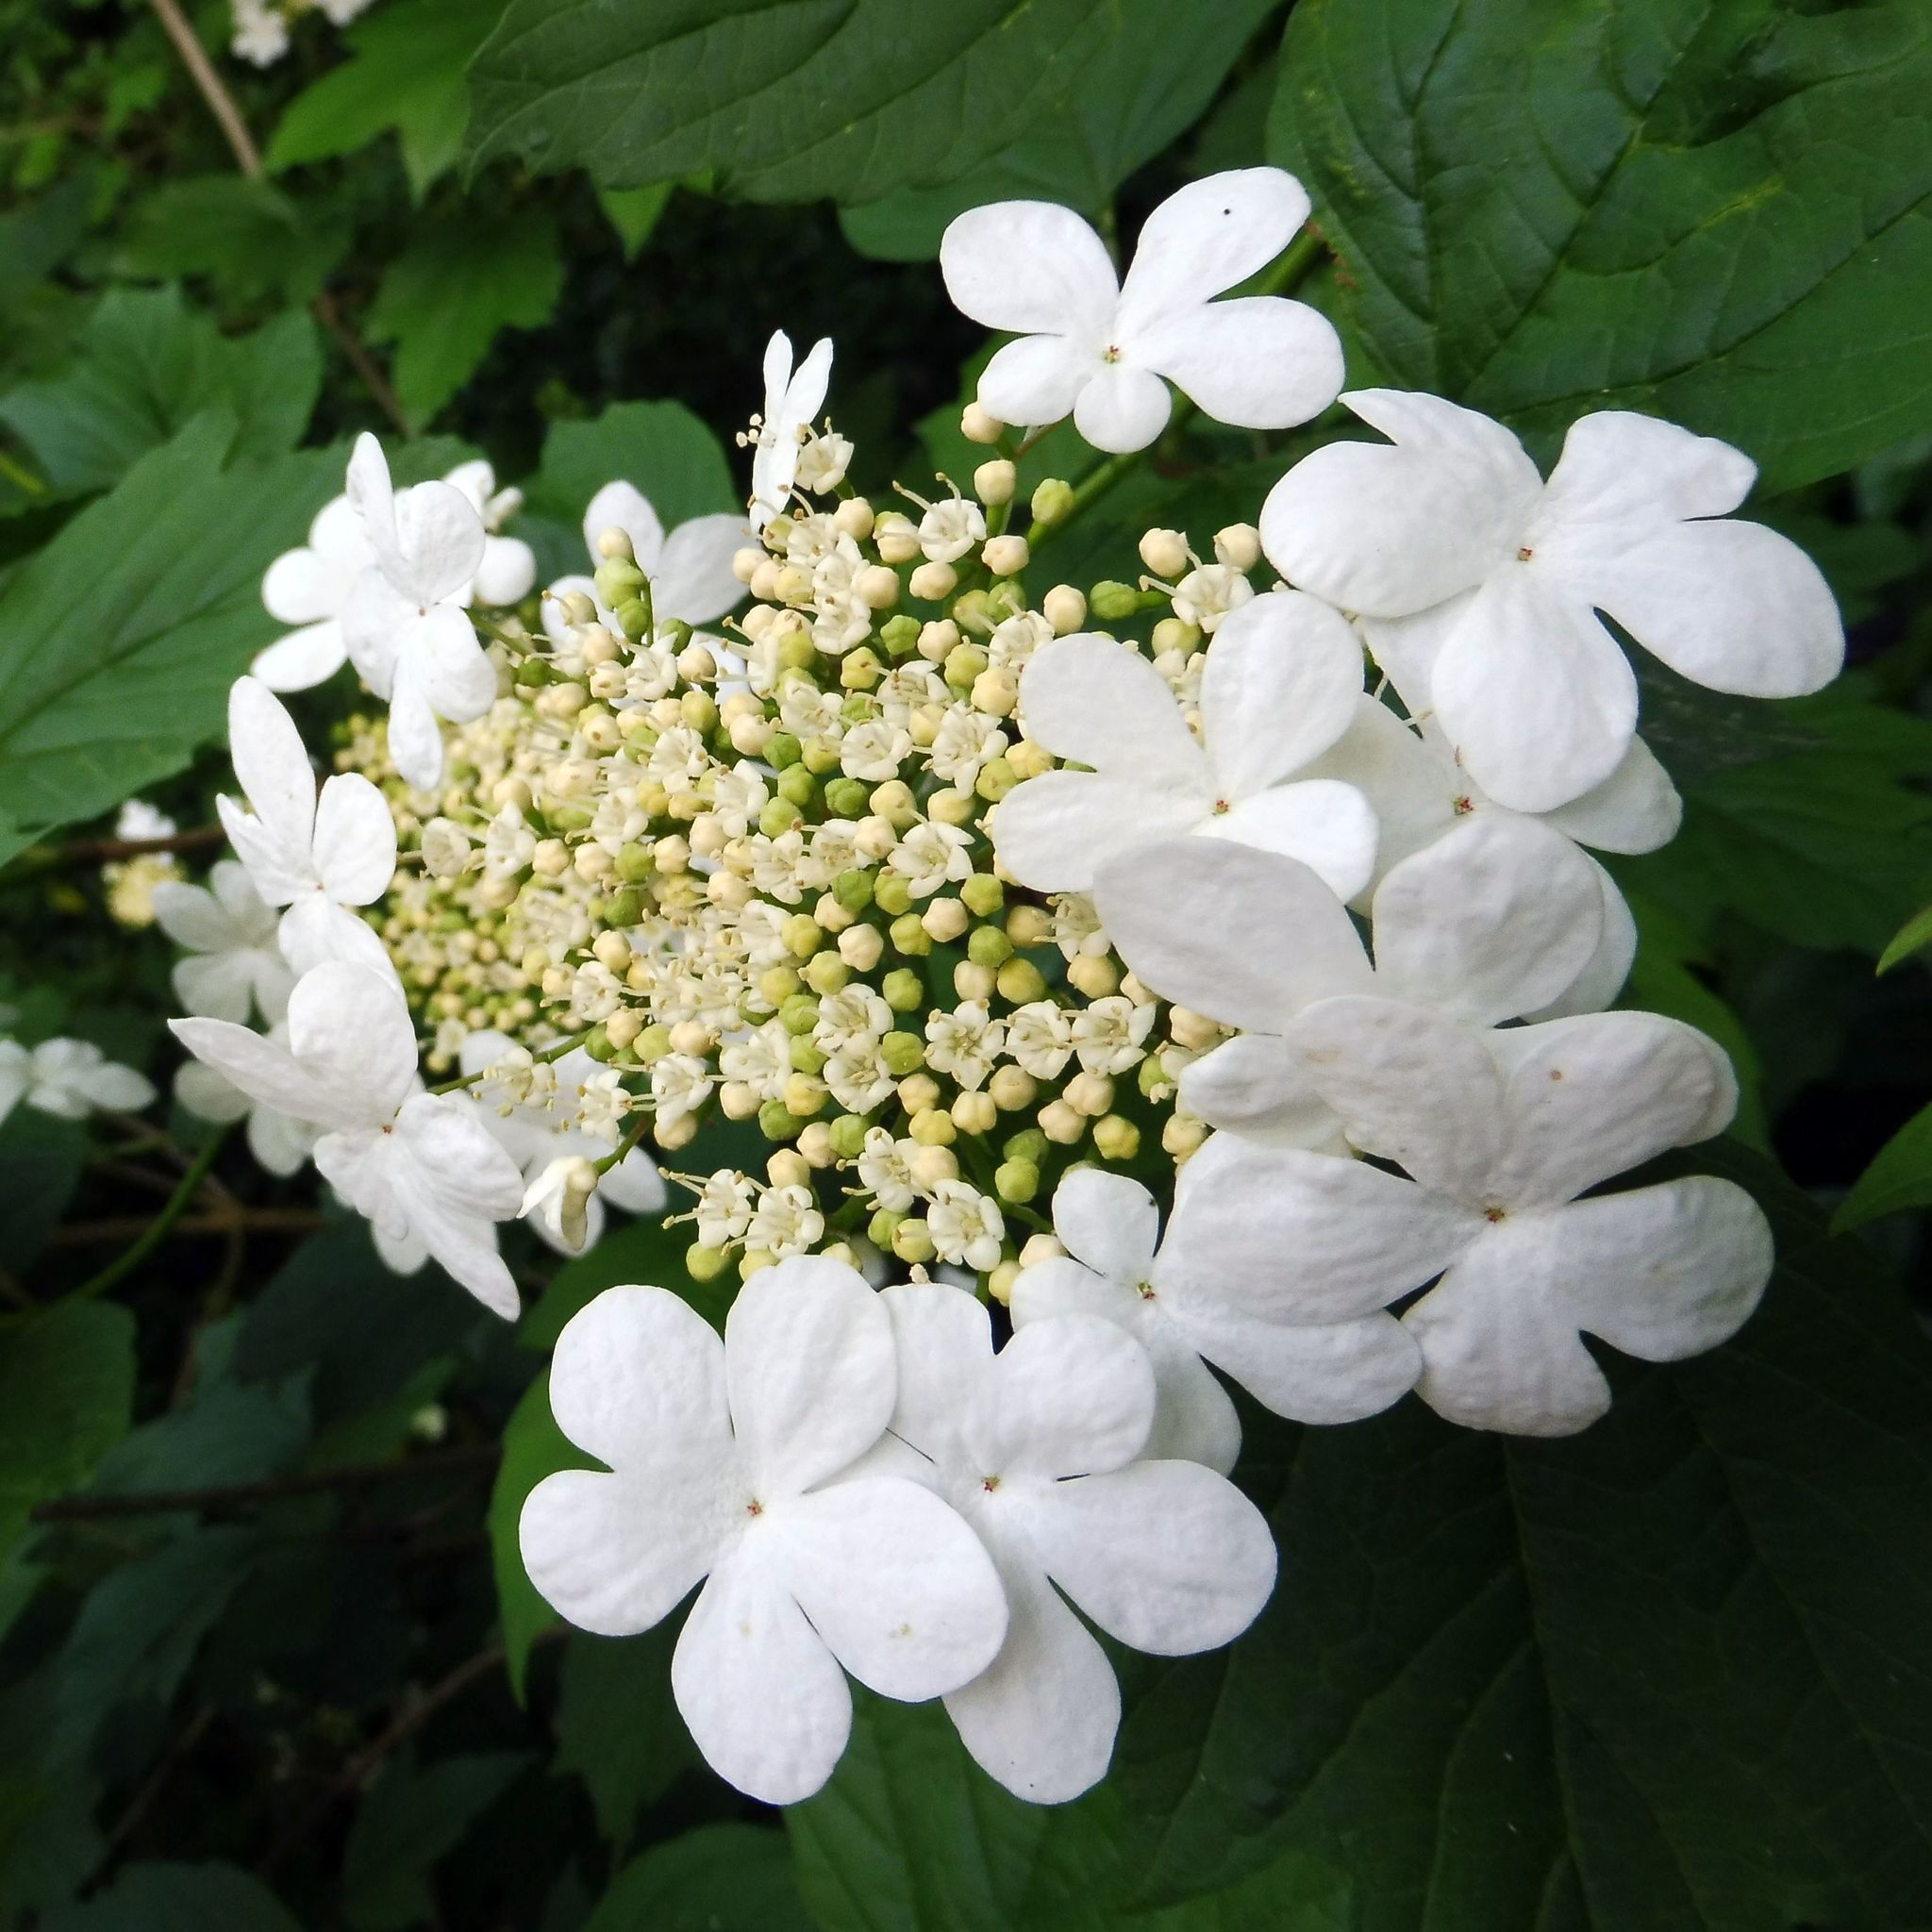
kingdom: Plantae
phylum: Tracheophyta
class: Magnoliopsida
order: Dipsacales
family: Viburnaceae
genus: Viburnum
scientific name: Viburnum opulus
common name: Guelder-rose
